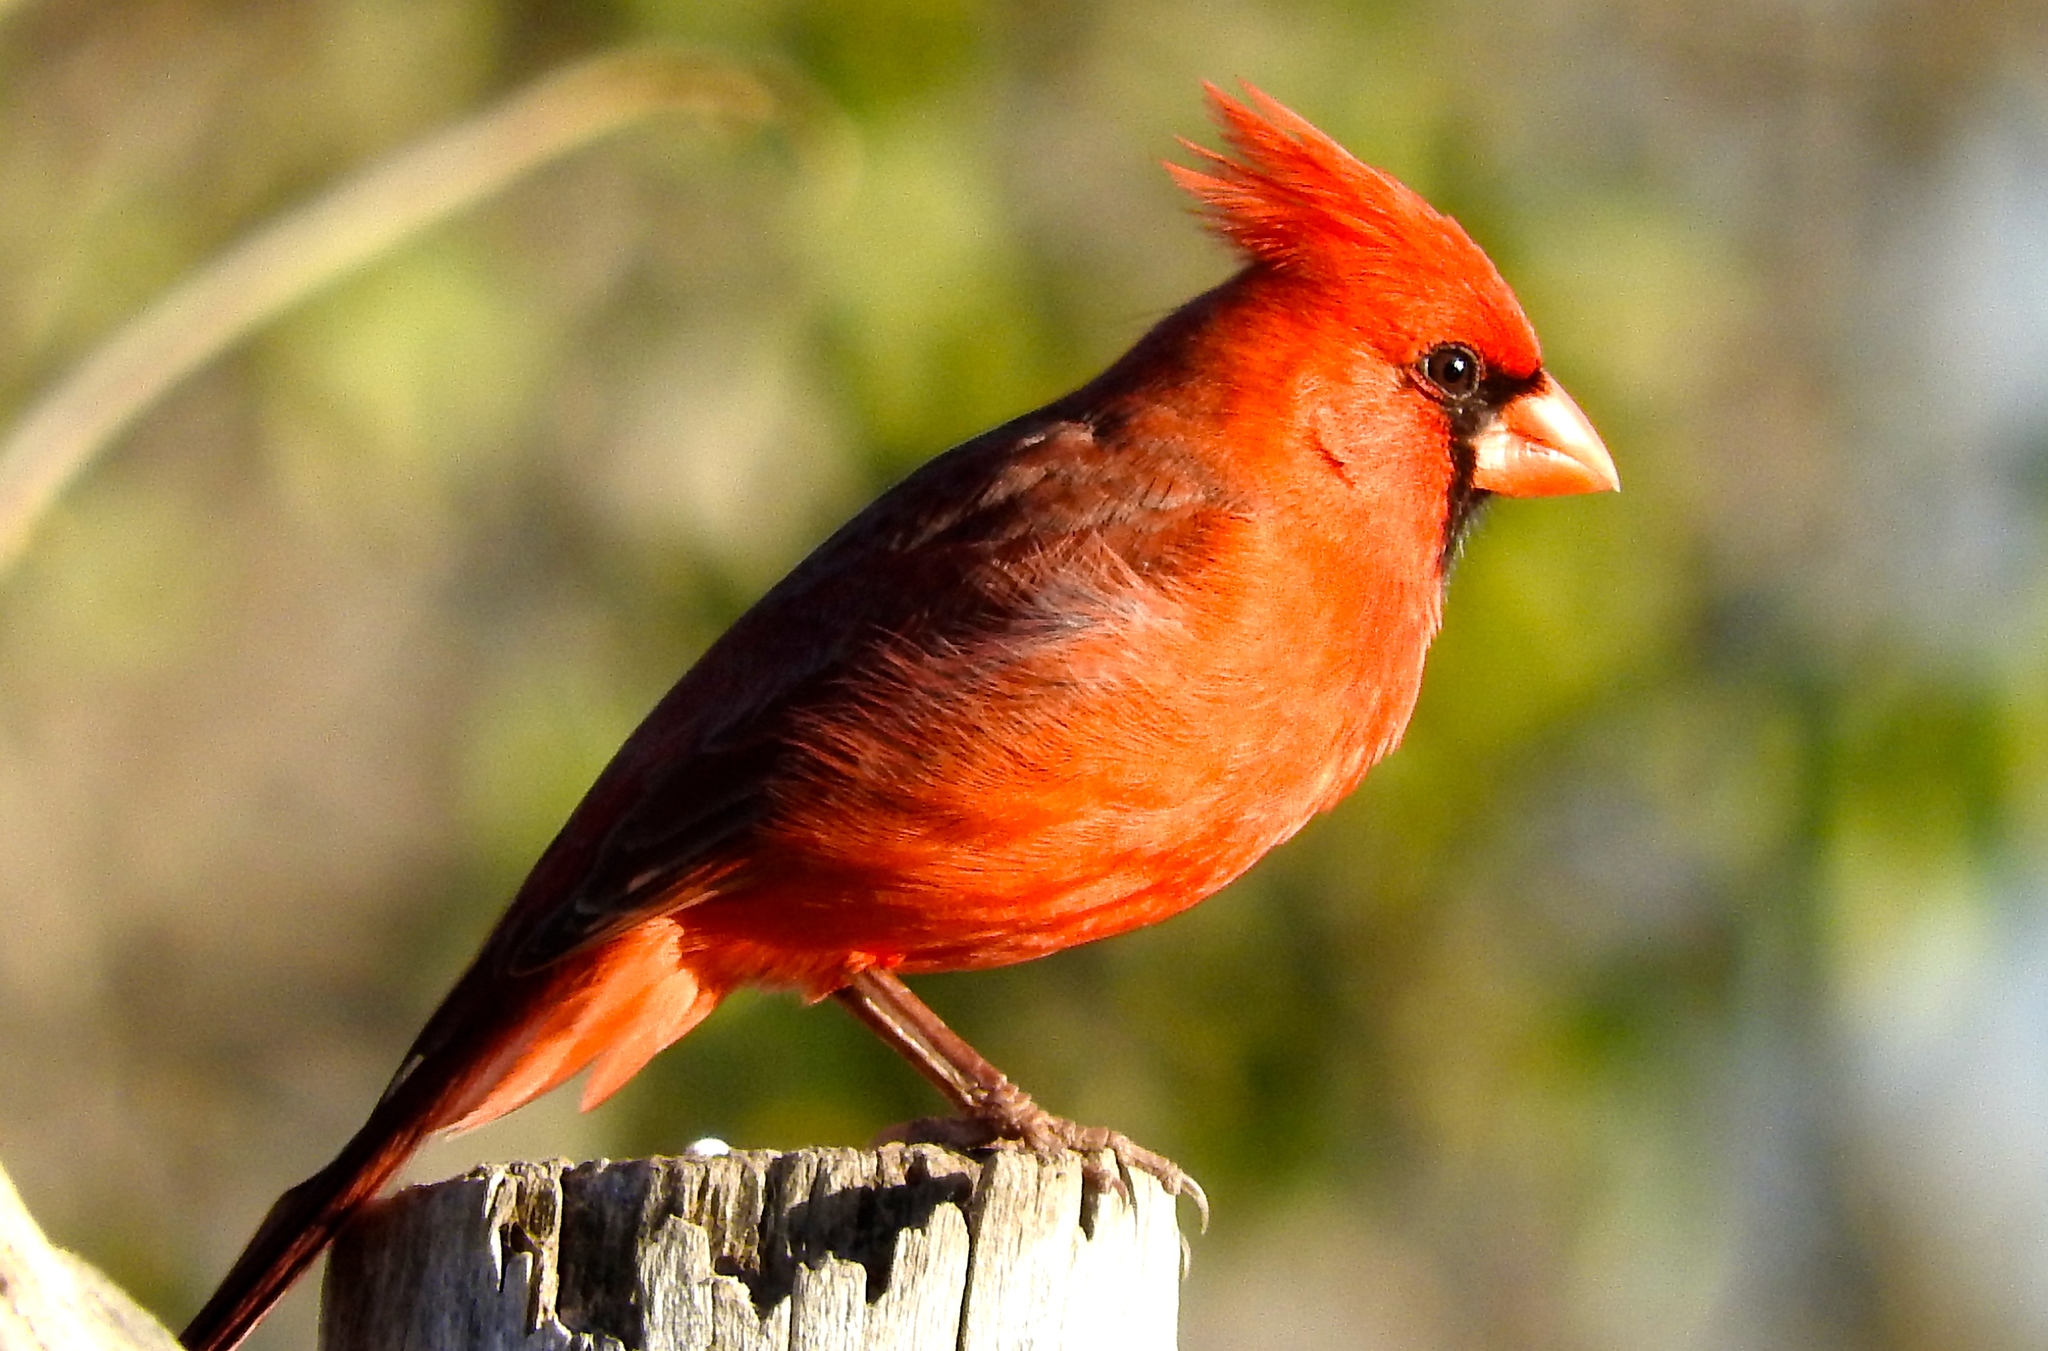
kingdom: Animalia
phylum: Chordata
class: Aves
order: Passeriformes
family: Cardinalidae
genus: Cardinalis
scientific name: Cardinalis cardinalis
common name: Northern cardinal
